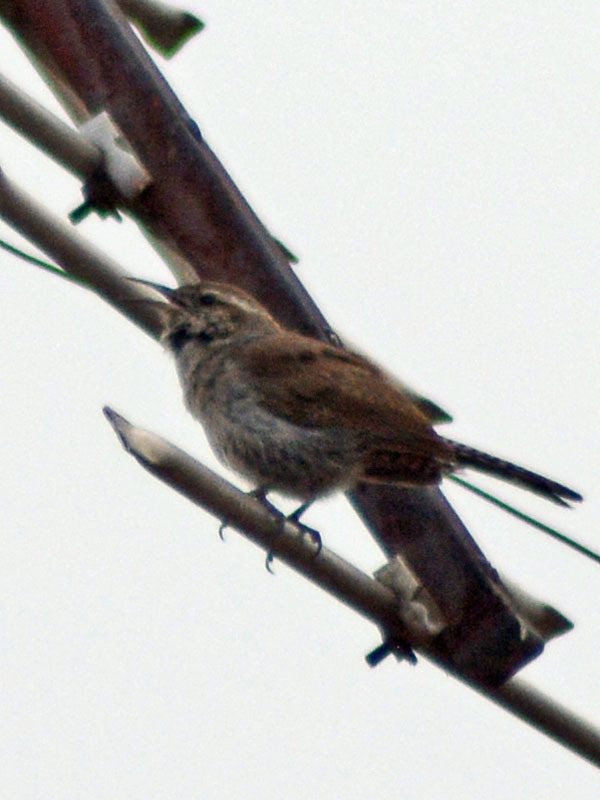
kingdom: Animalia
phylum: Chordata
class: Aves
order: Passeriformes
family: Troglodytidae
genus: Thryomanes
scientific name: Thryomanes bewickii
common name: Bewick's wren
